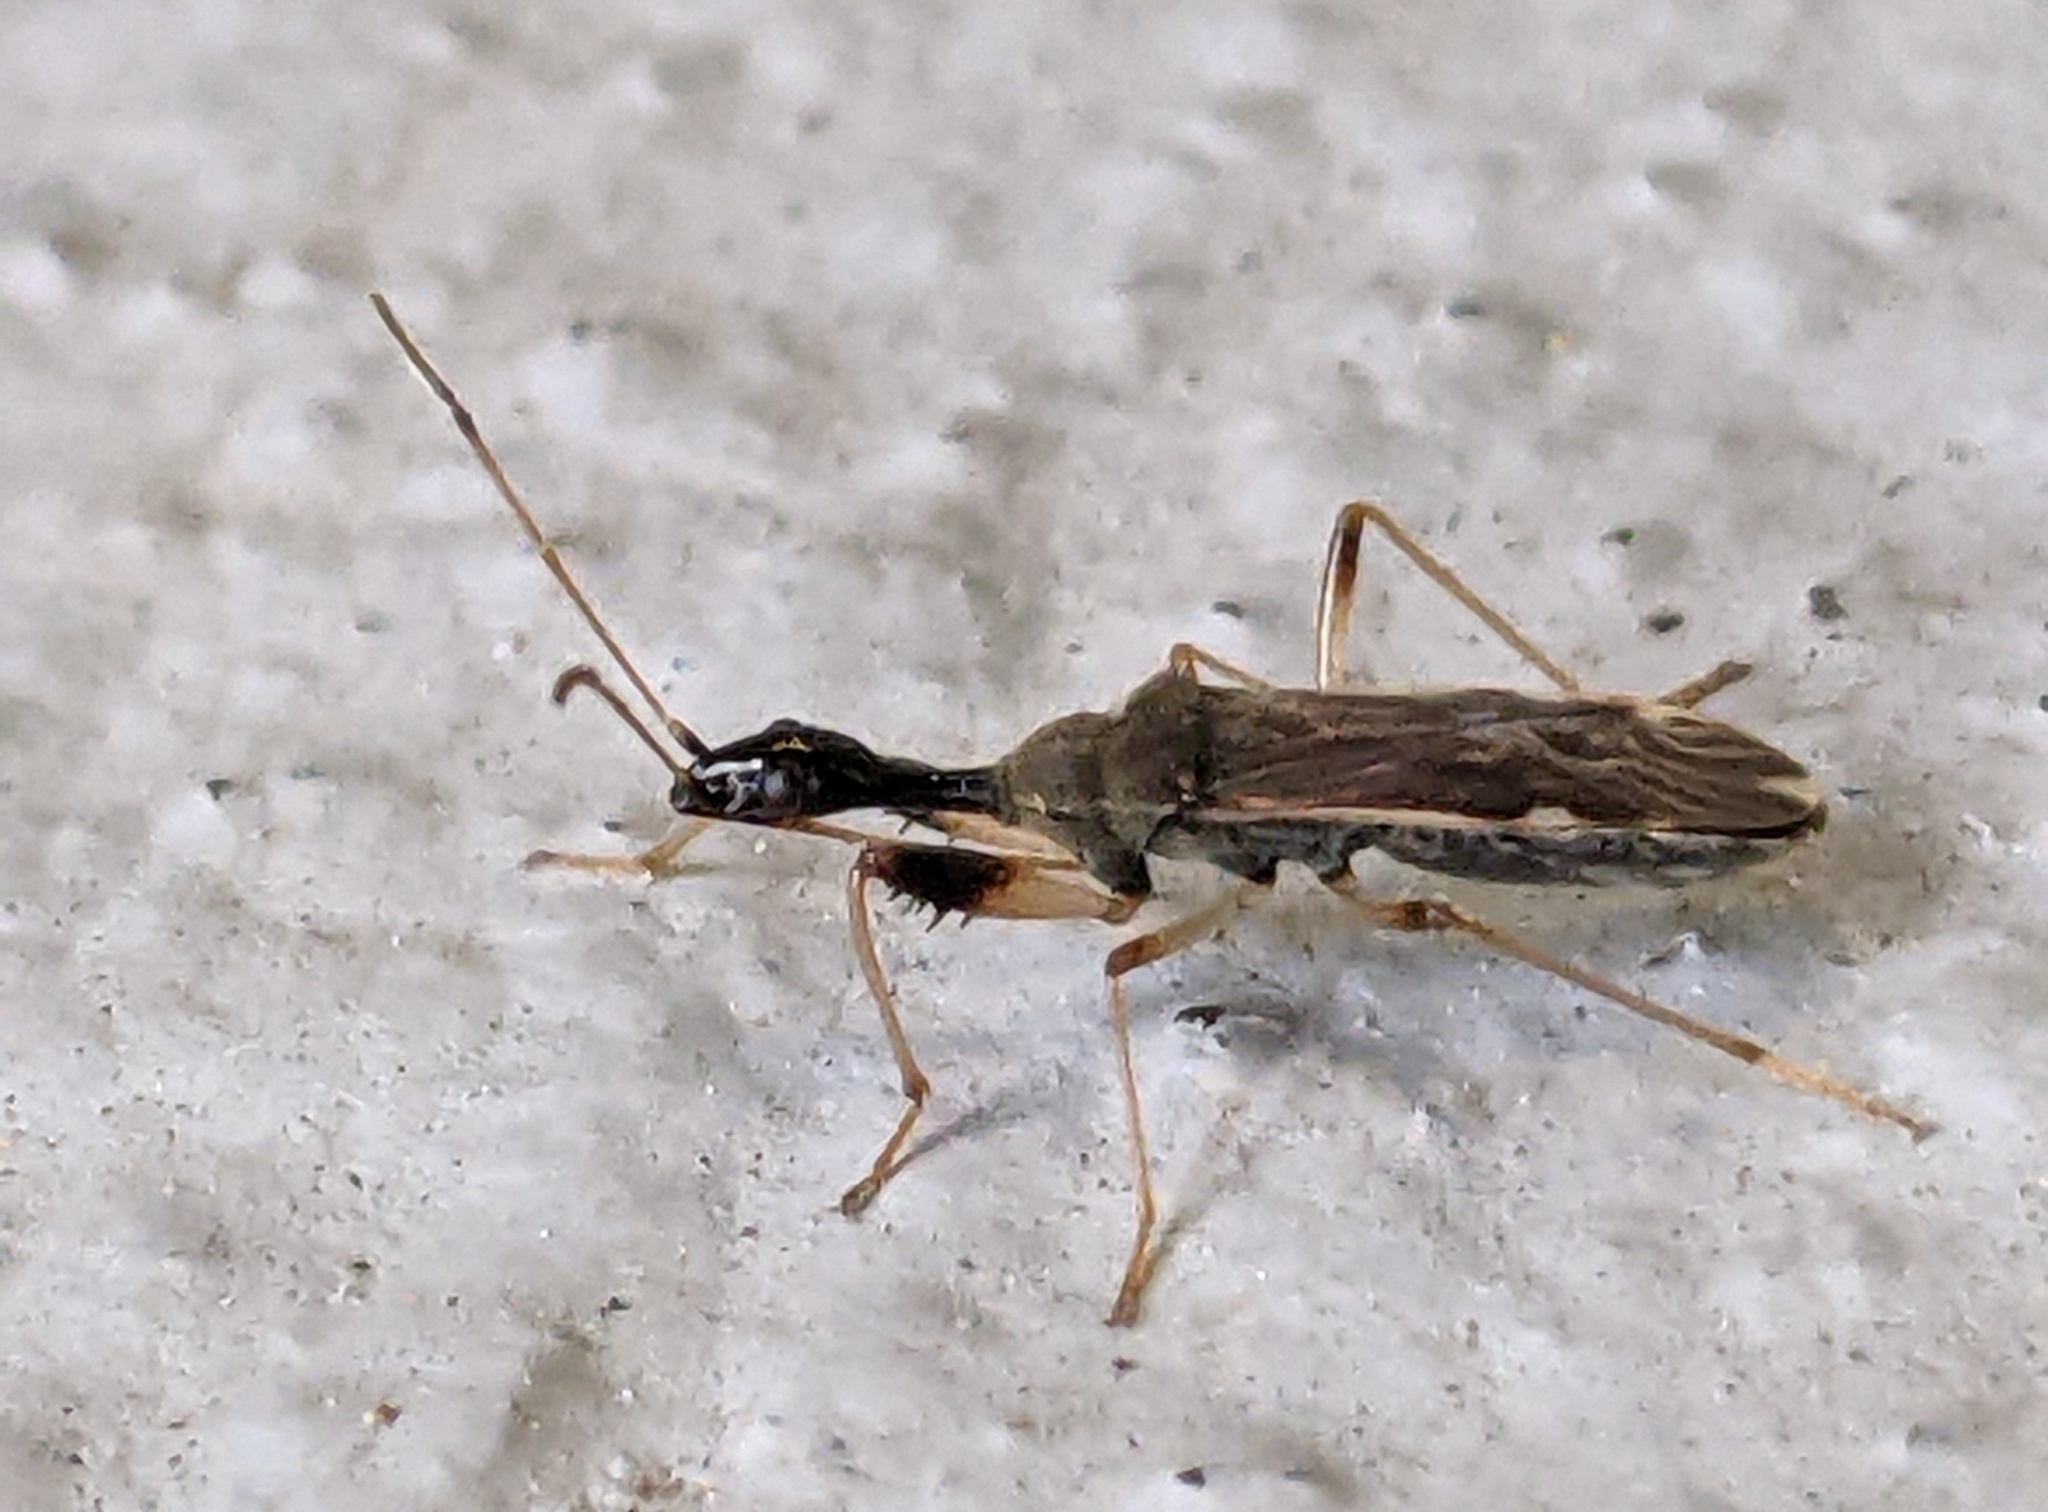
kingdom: Animalia
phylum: Arthropoda
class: Insecta
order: Hemiptera
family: Rhyparochromidae
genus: Myodocha
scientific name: Myodocha serripes
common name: Long-necked seed bug
